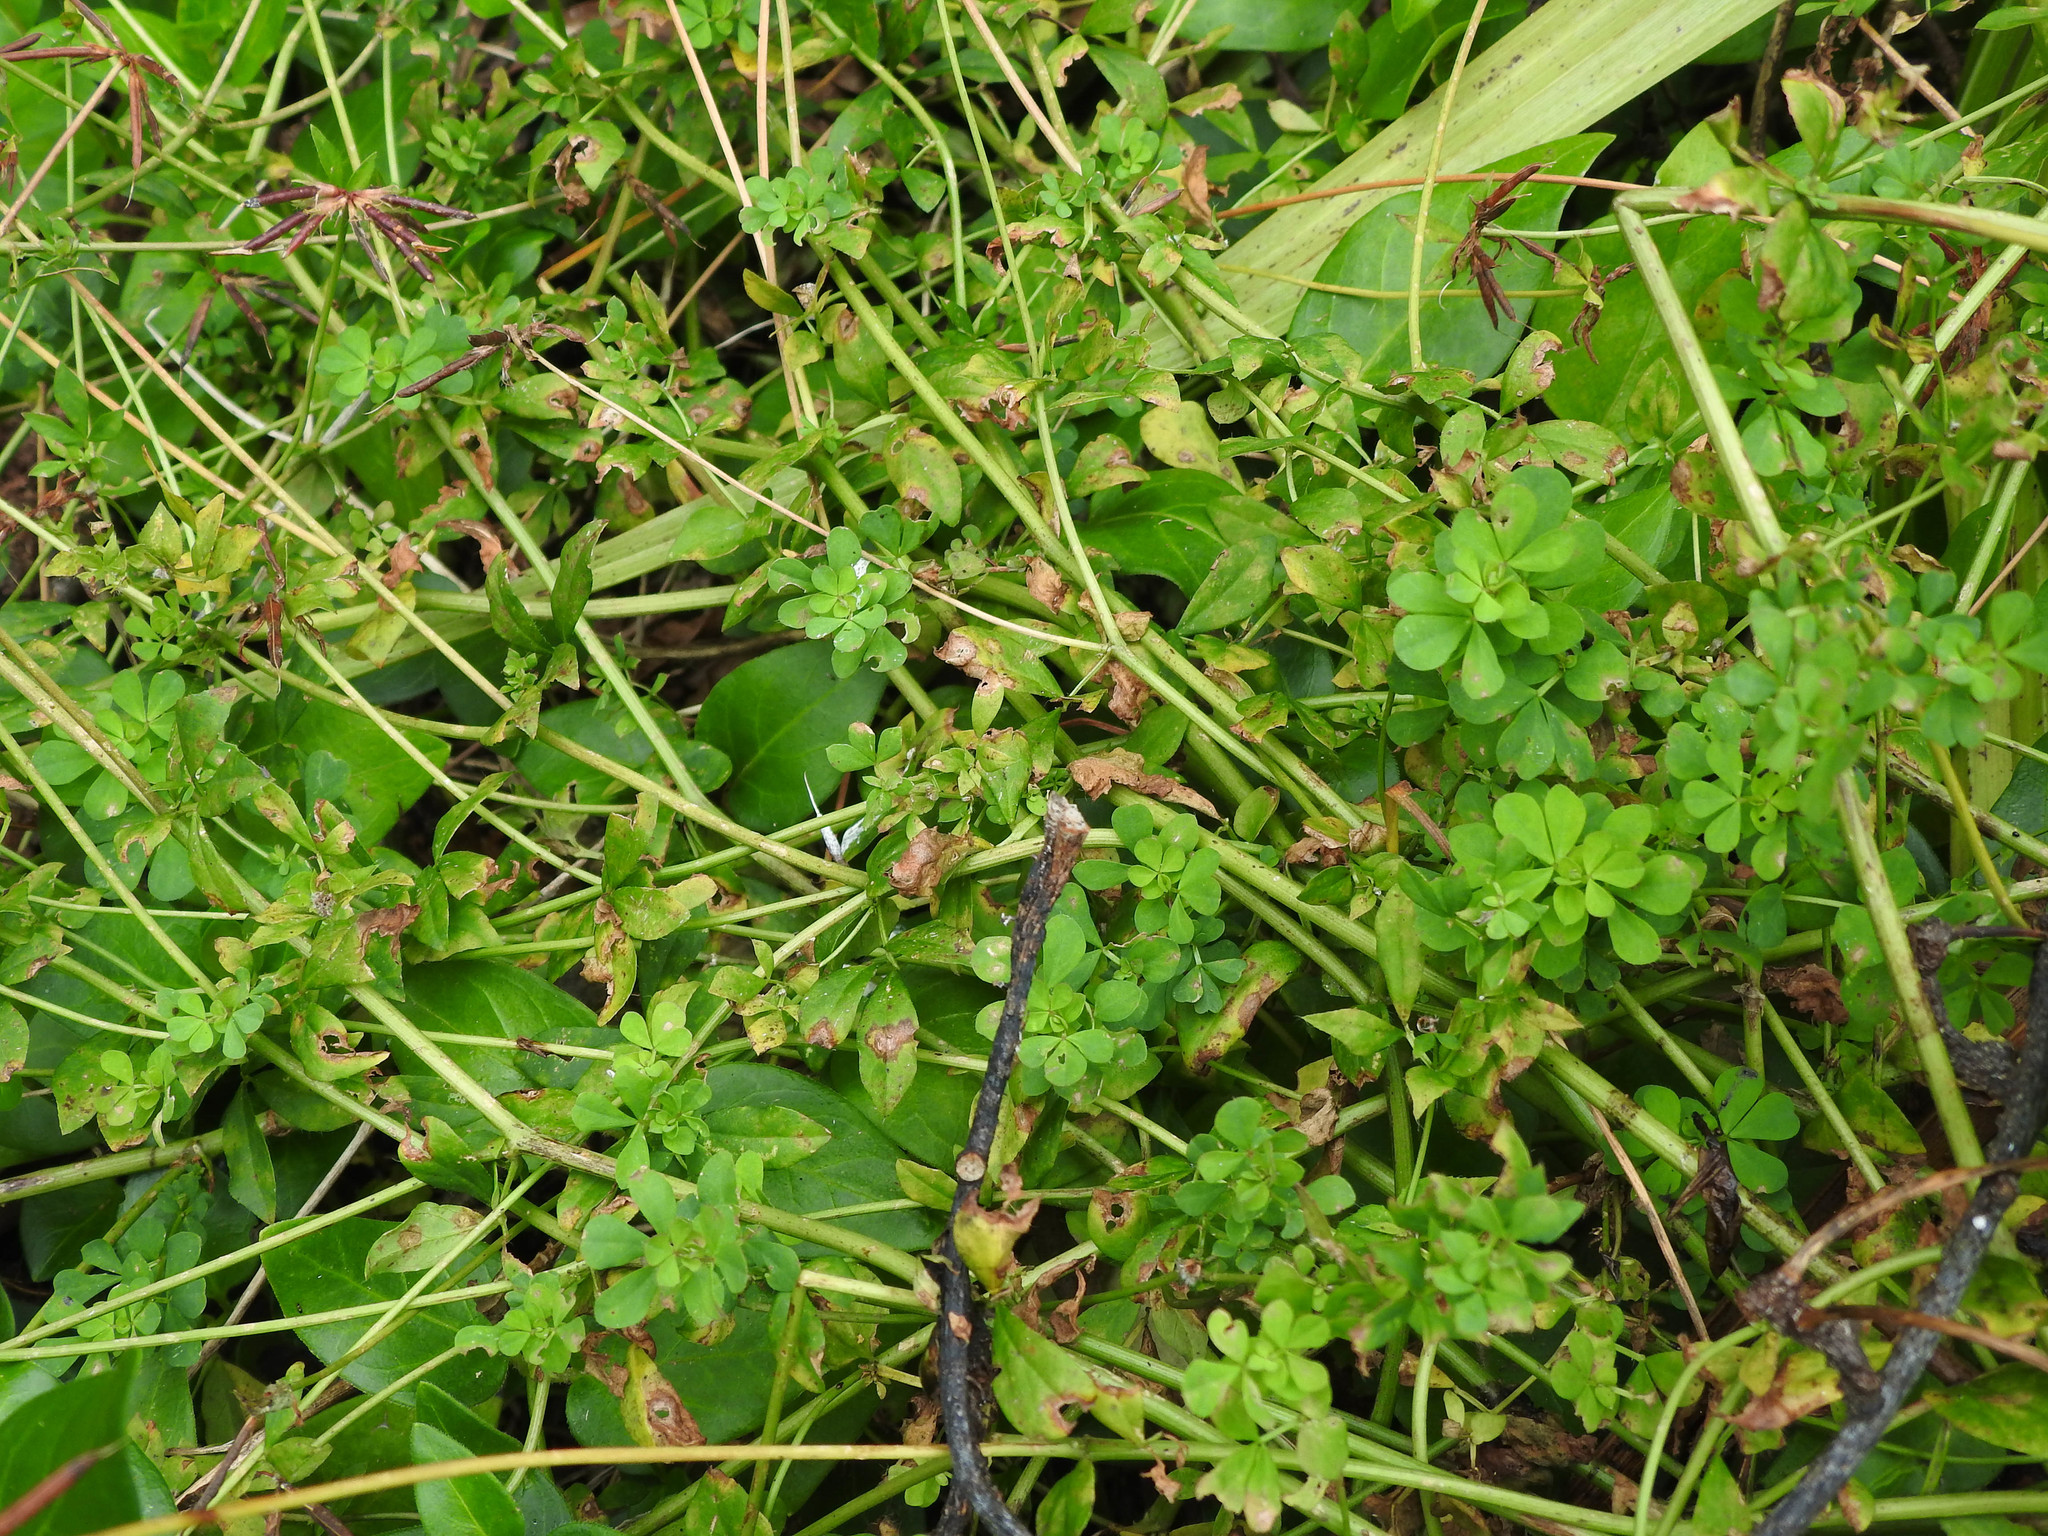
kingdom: Plantae
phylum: Tracheophyta
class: Magnoliopsida
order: Fabales
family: Fabaceae
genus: Lotus
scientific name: Lotus pedunculatus
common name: Greater birdsfoot-trefoil
